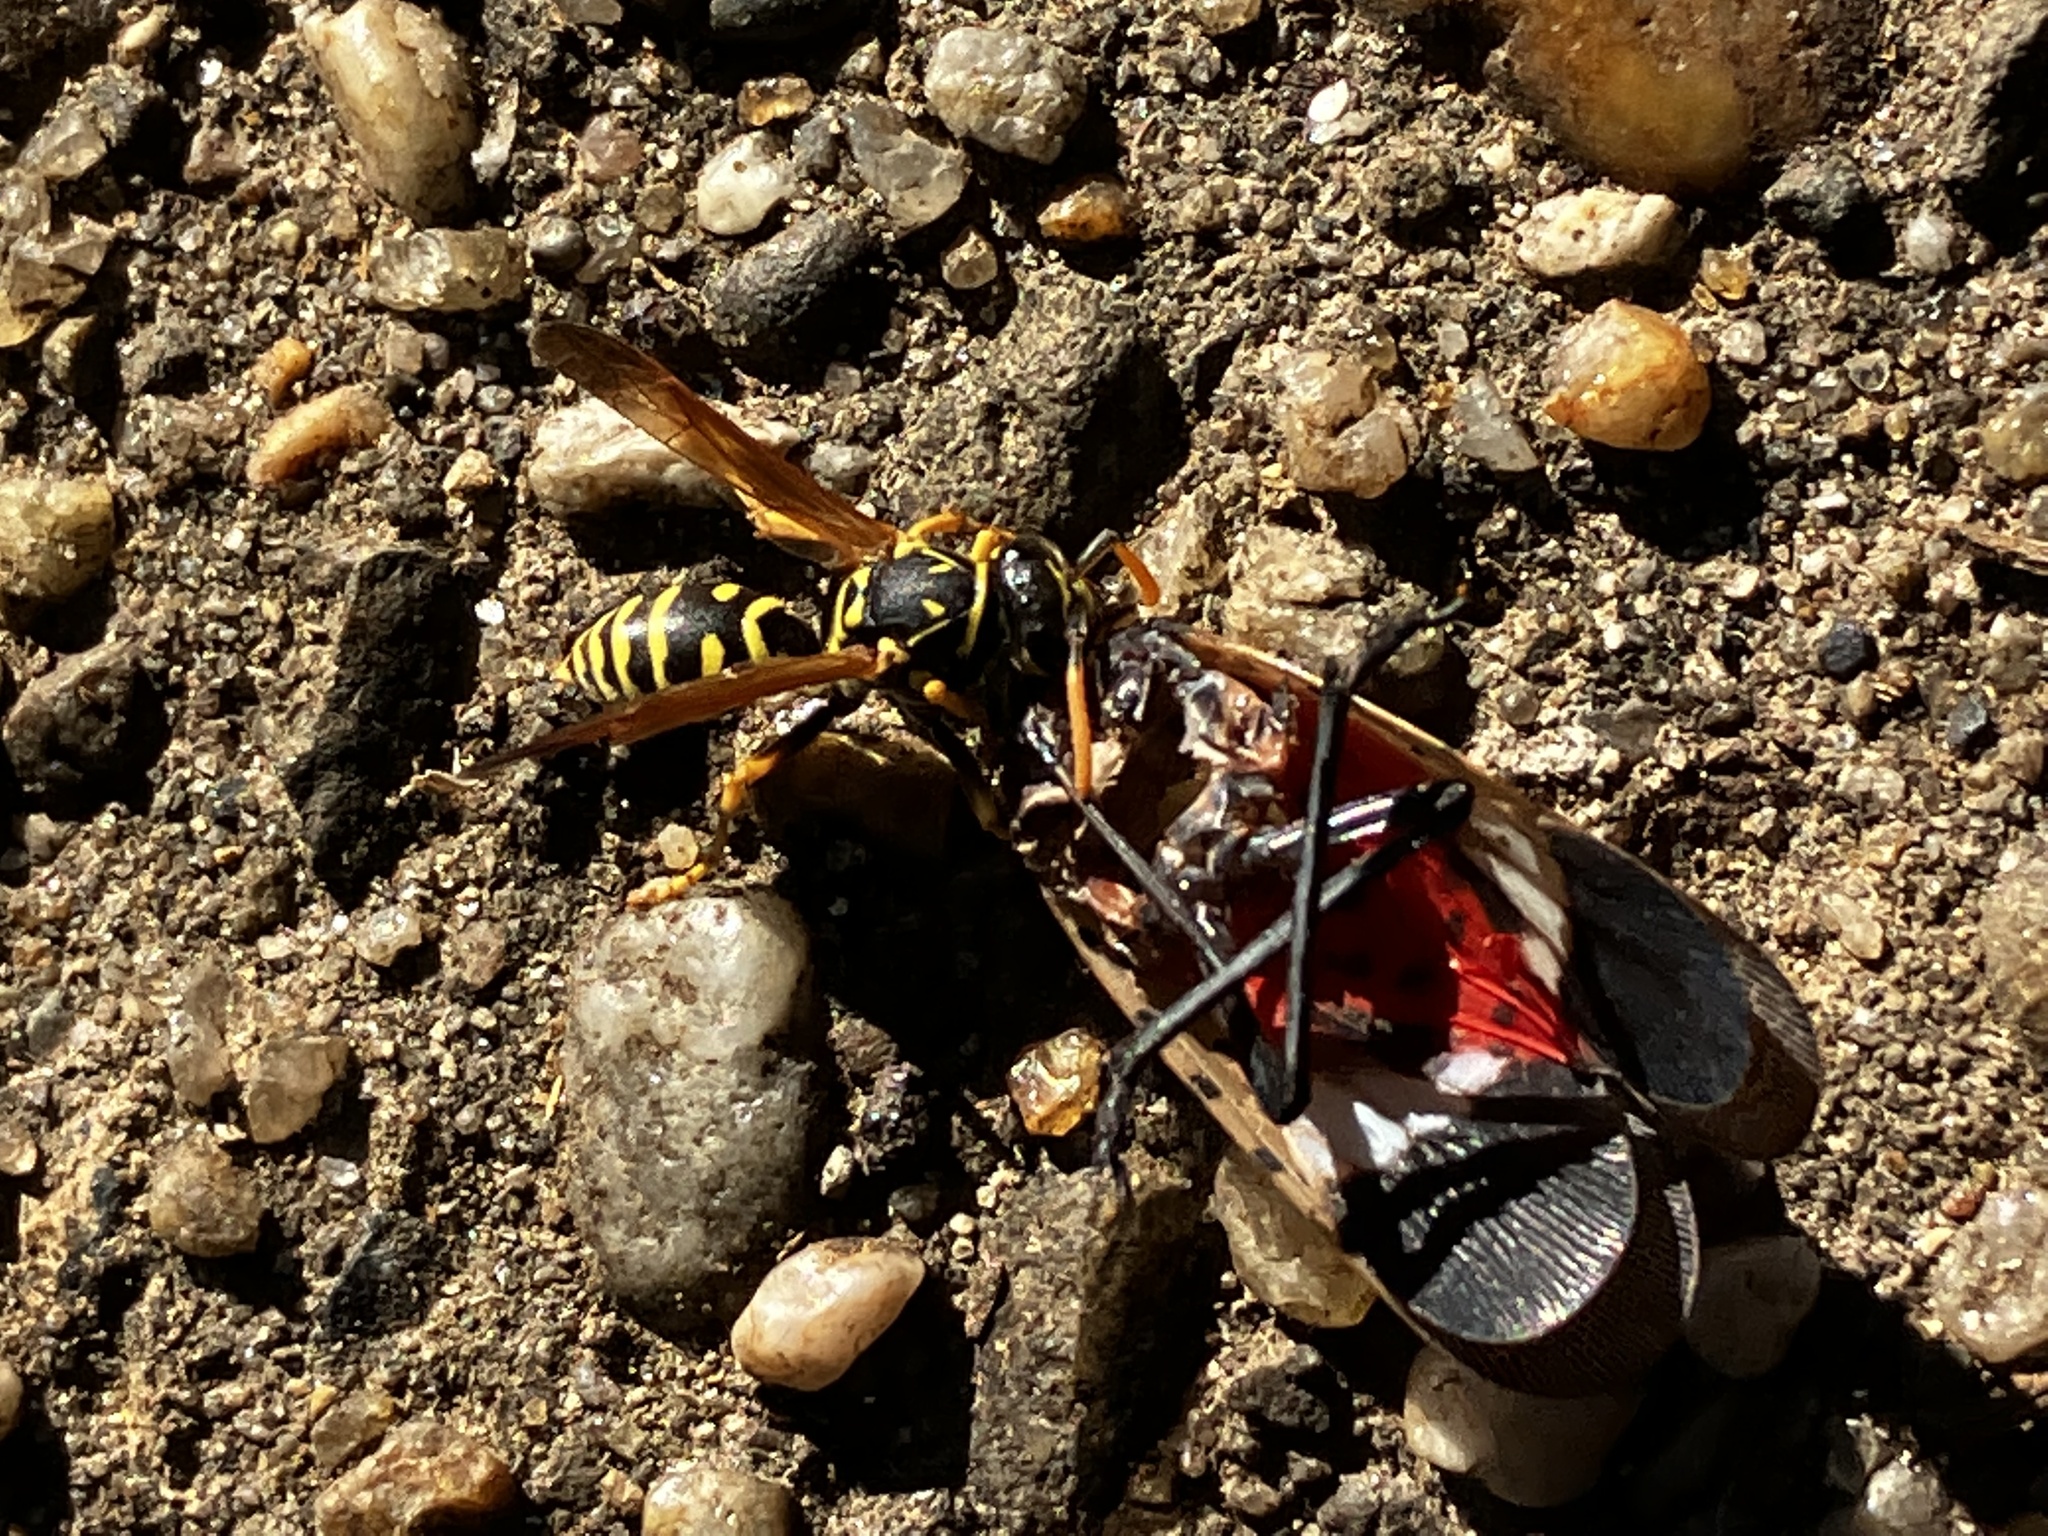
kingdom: Animalia
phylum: Arthropoda
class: Insecta
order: Hemiptera
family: Fulgoridae
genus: Lycorma
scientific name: Lycorma delicatula
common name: Spotted lanternfly
